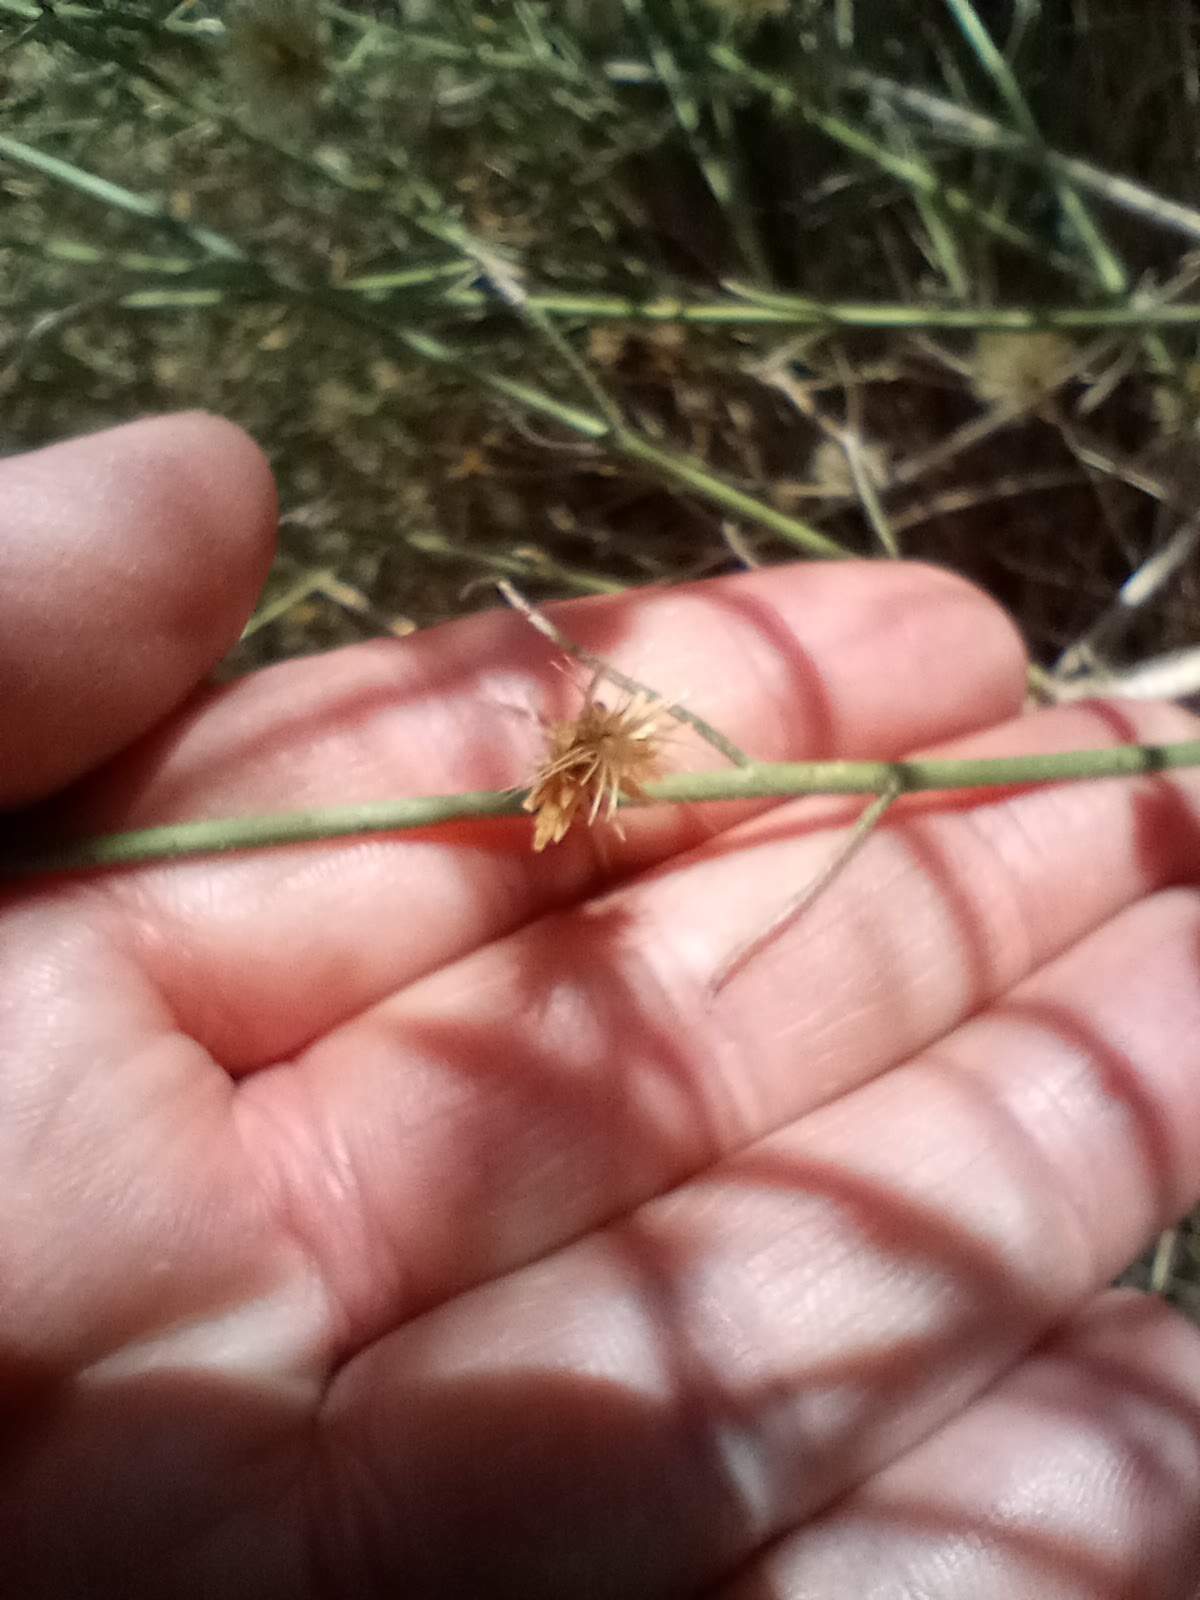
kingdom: Plantae
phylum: Tracheophyta
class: Magnoliopsida
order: Asterales
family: Asteraceae
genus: Bebbia
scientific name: Bebbia juncea
